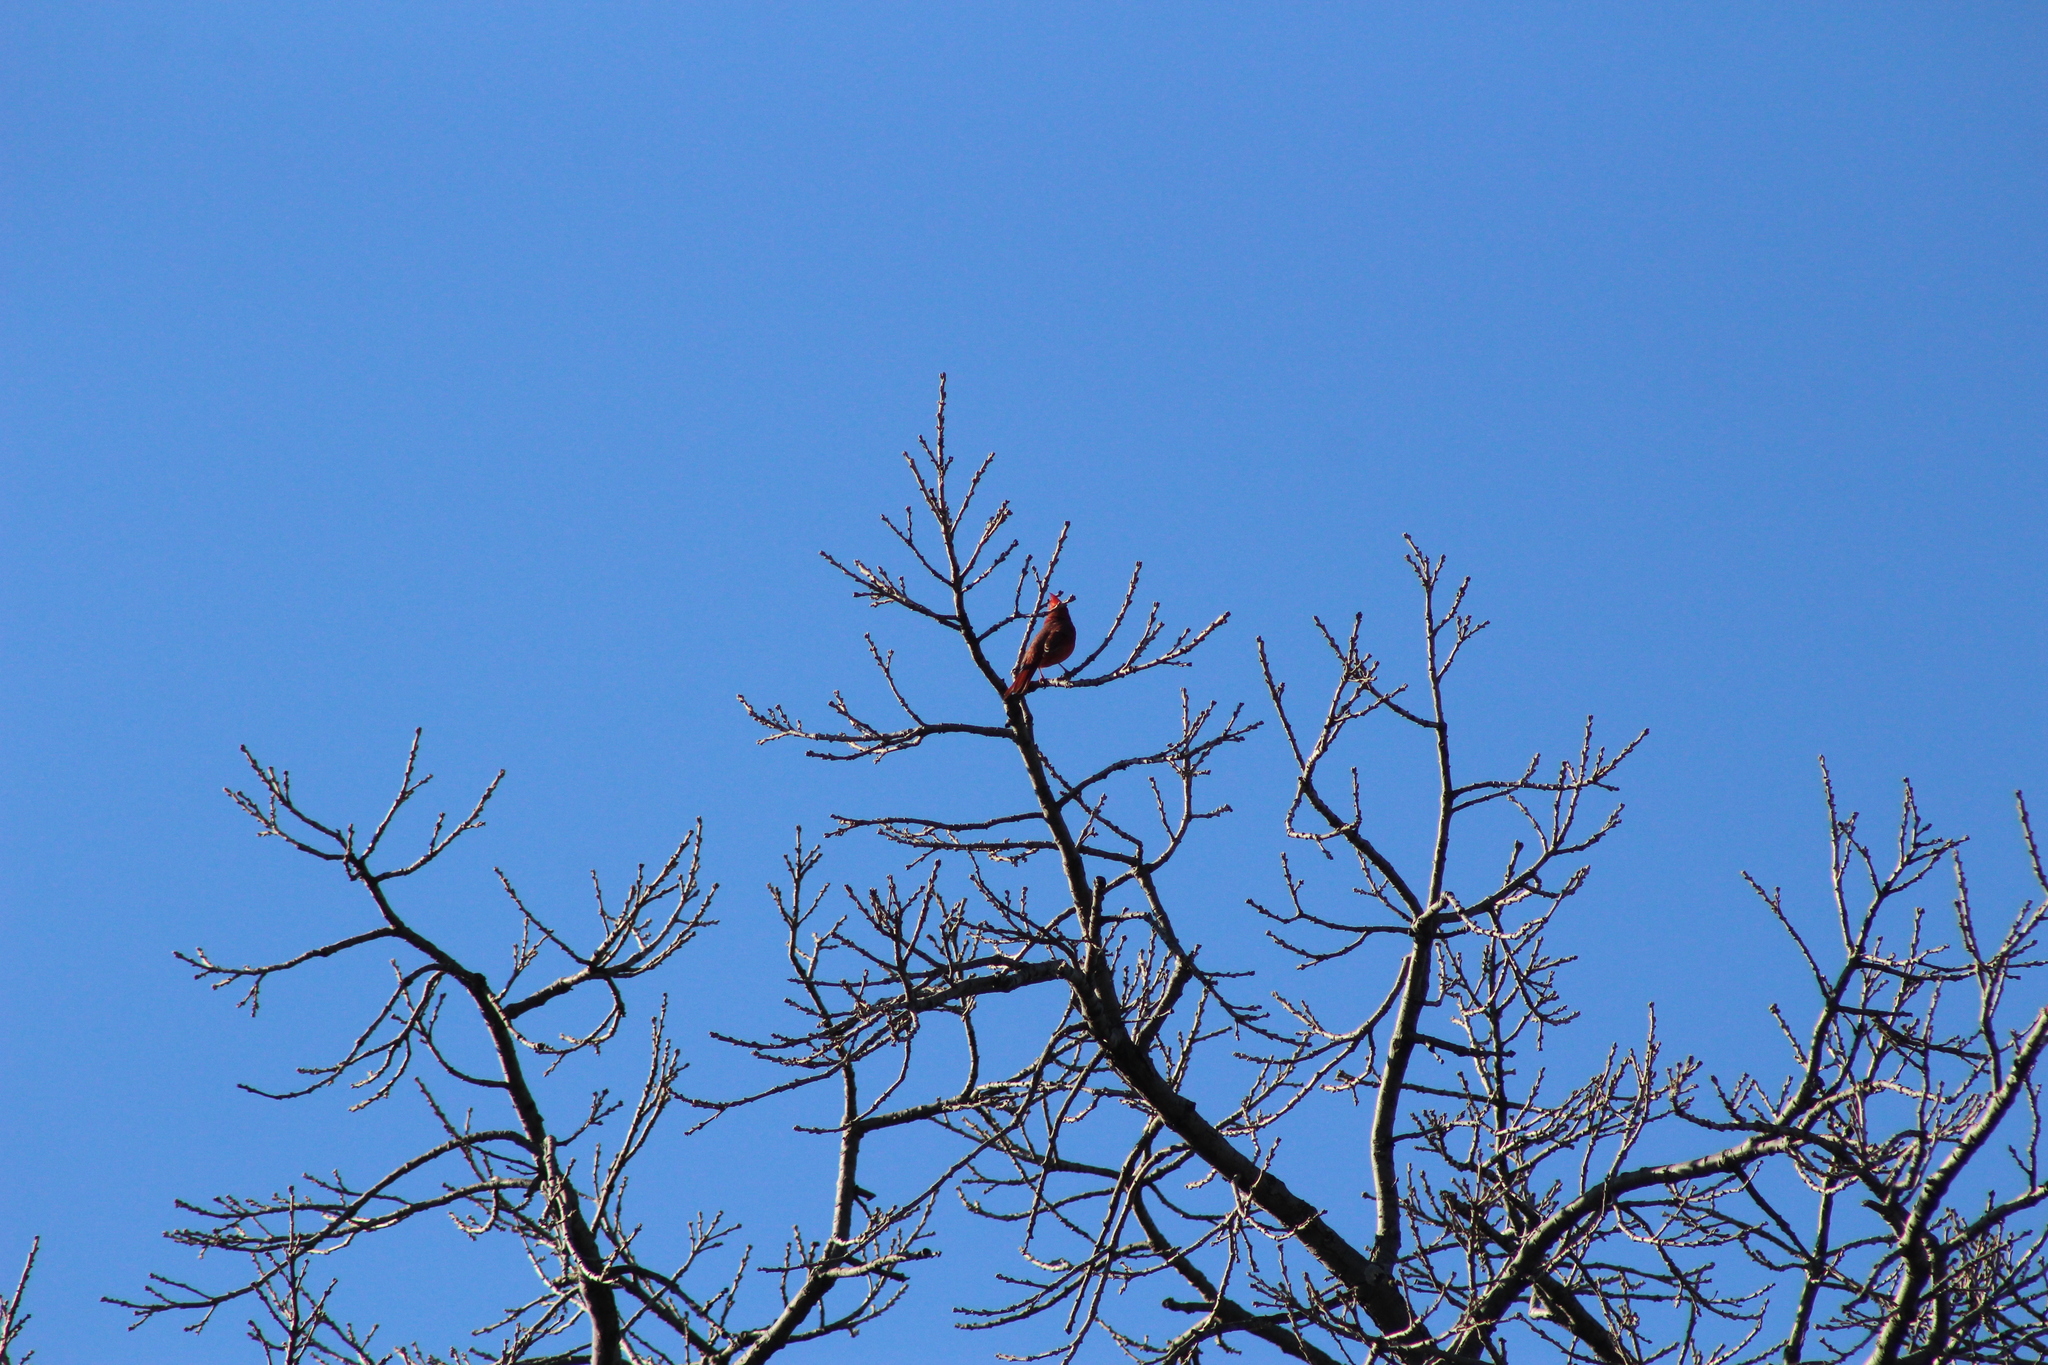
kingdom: Animalia
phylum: Chordata
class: Aves
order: Passeriformes
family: Cardinalidae
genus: Cardinalis
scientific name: Cardinalis cardinalis
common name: Northern cardinal
